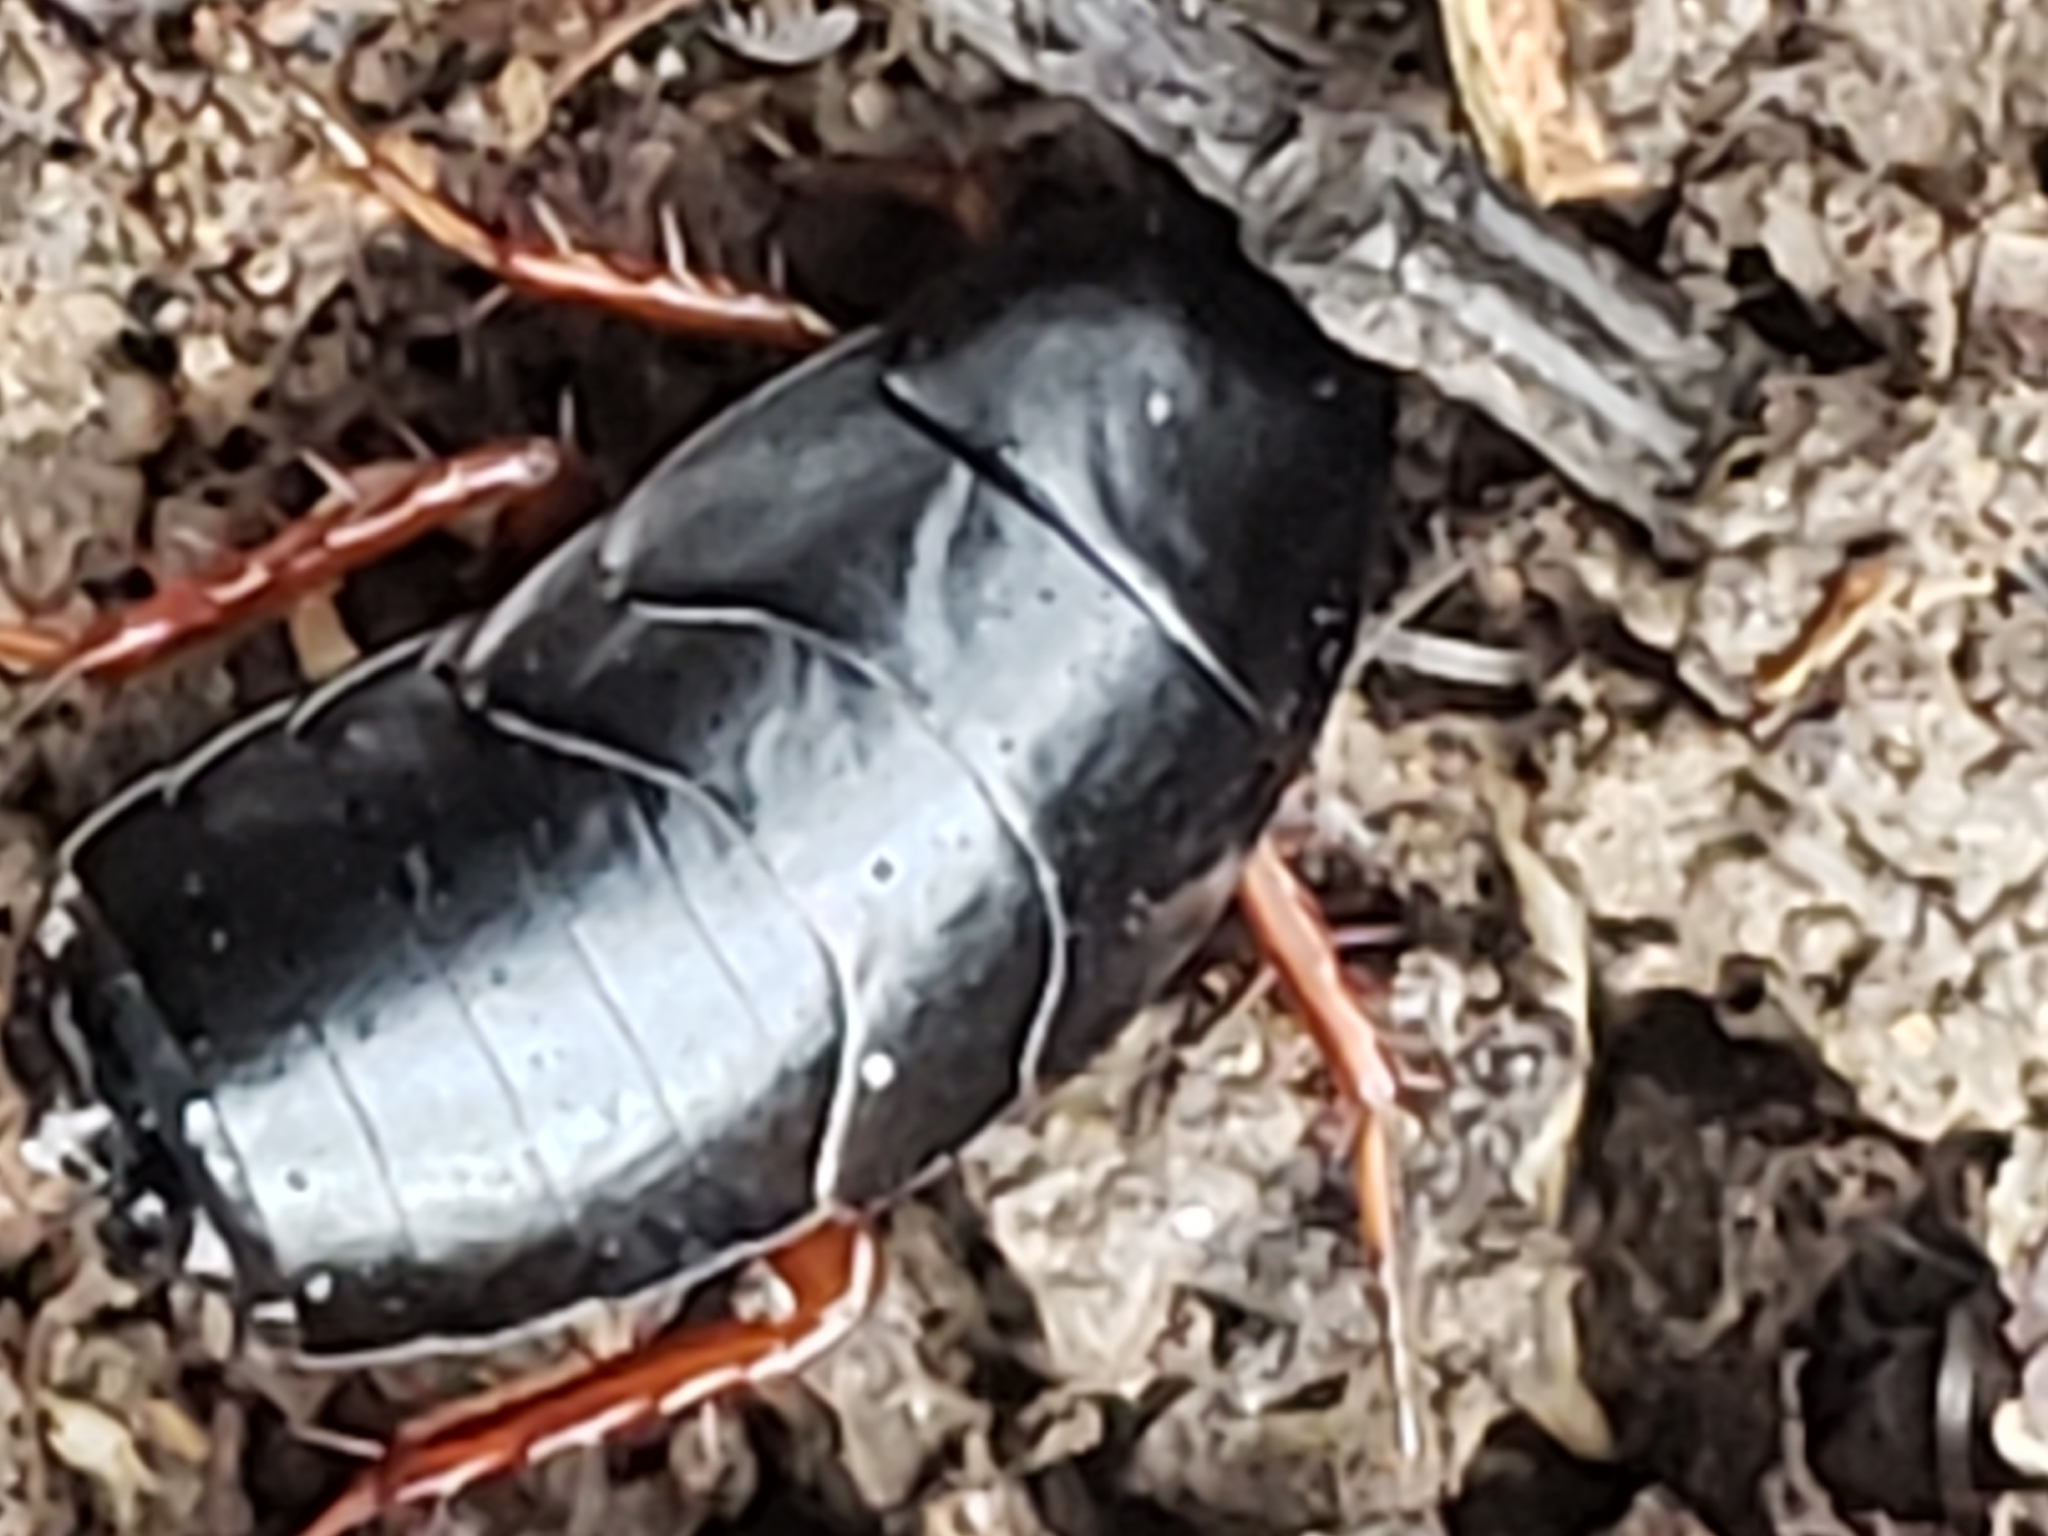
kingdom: Animalia
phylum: Arthropoda
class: Insecta
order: Blattodea
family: Ectobiidae
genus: Ischnoptera
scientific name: Ischnoptera deropeltiformis
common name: Dark wood cockroach
